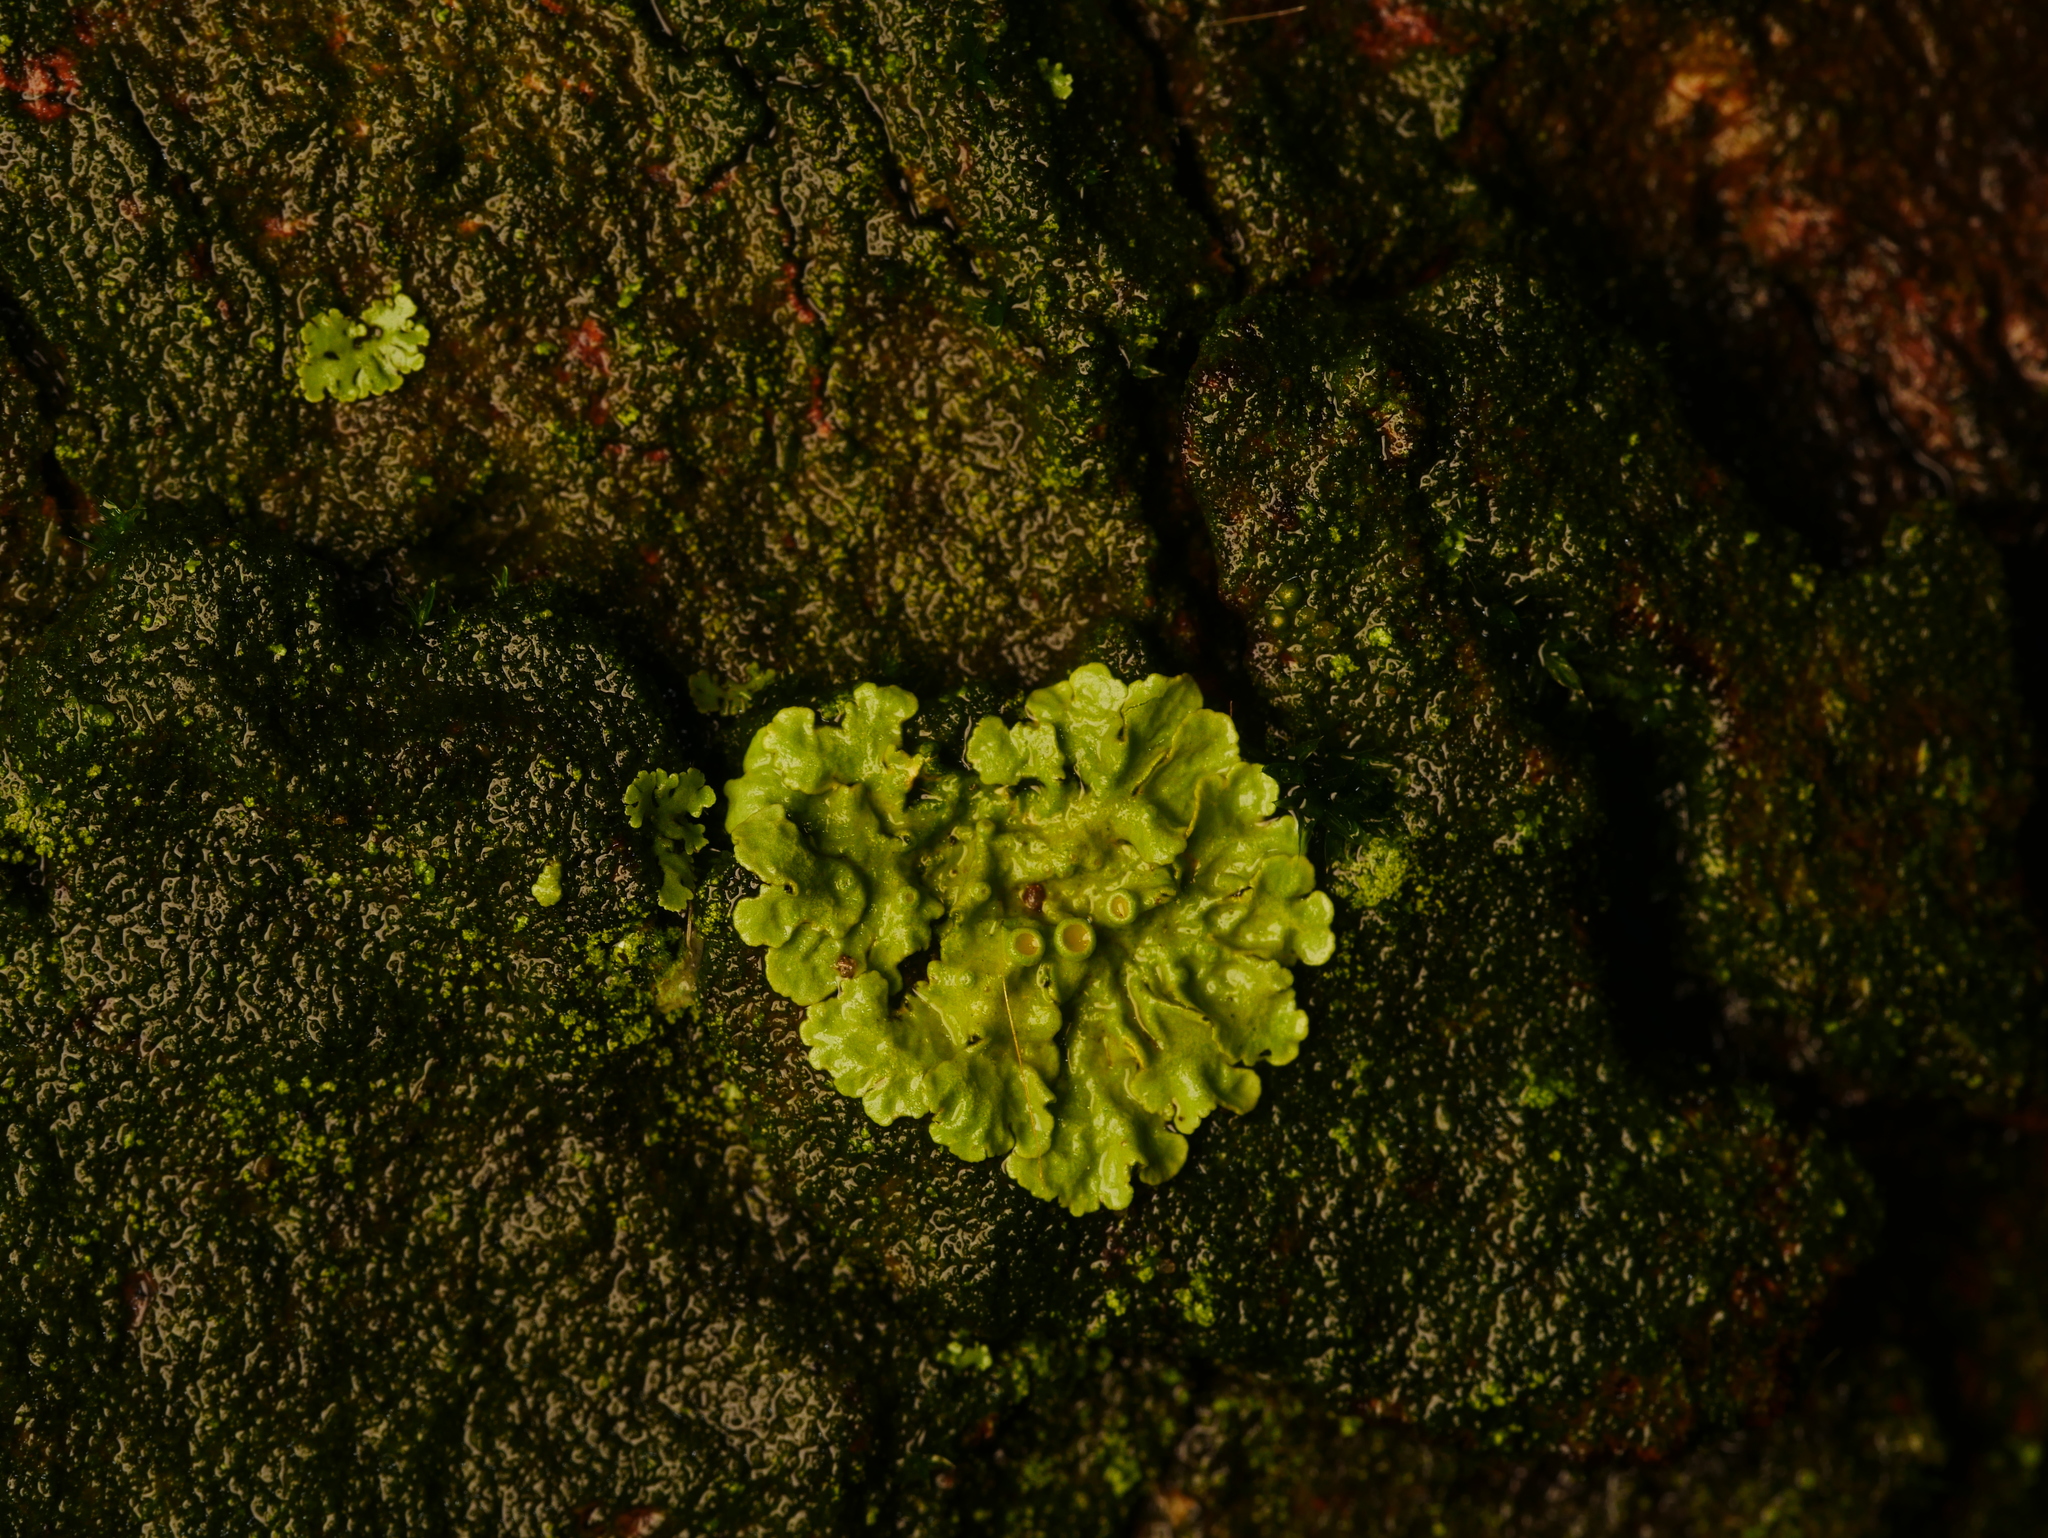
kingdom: Fungi
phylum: Ascomycota
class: Lecanoromycetes
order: Teloschistales
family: Teloschistaceae
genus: Xanthoria
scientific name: Xanthoria parietina
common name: Common orange lichen
